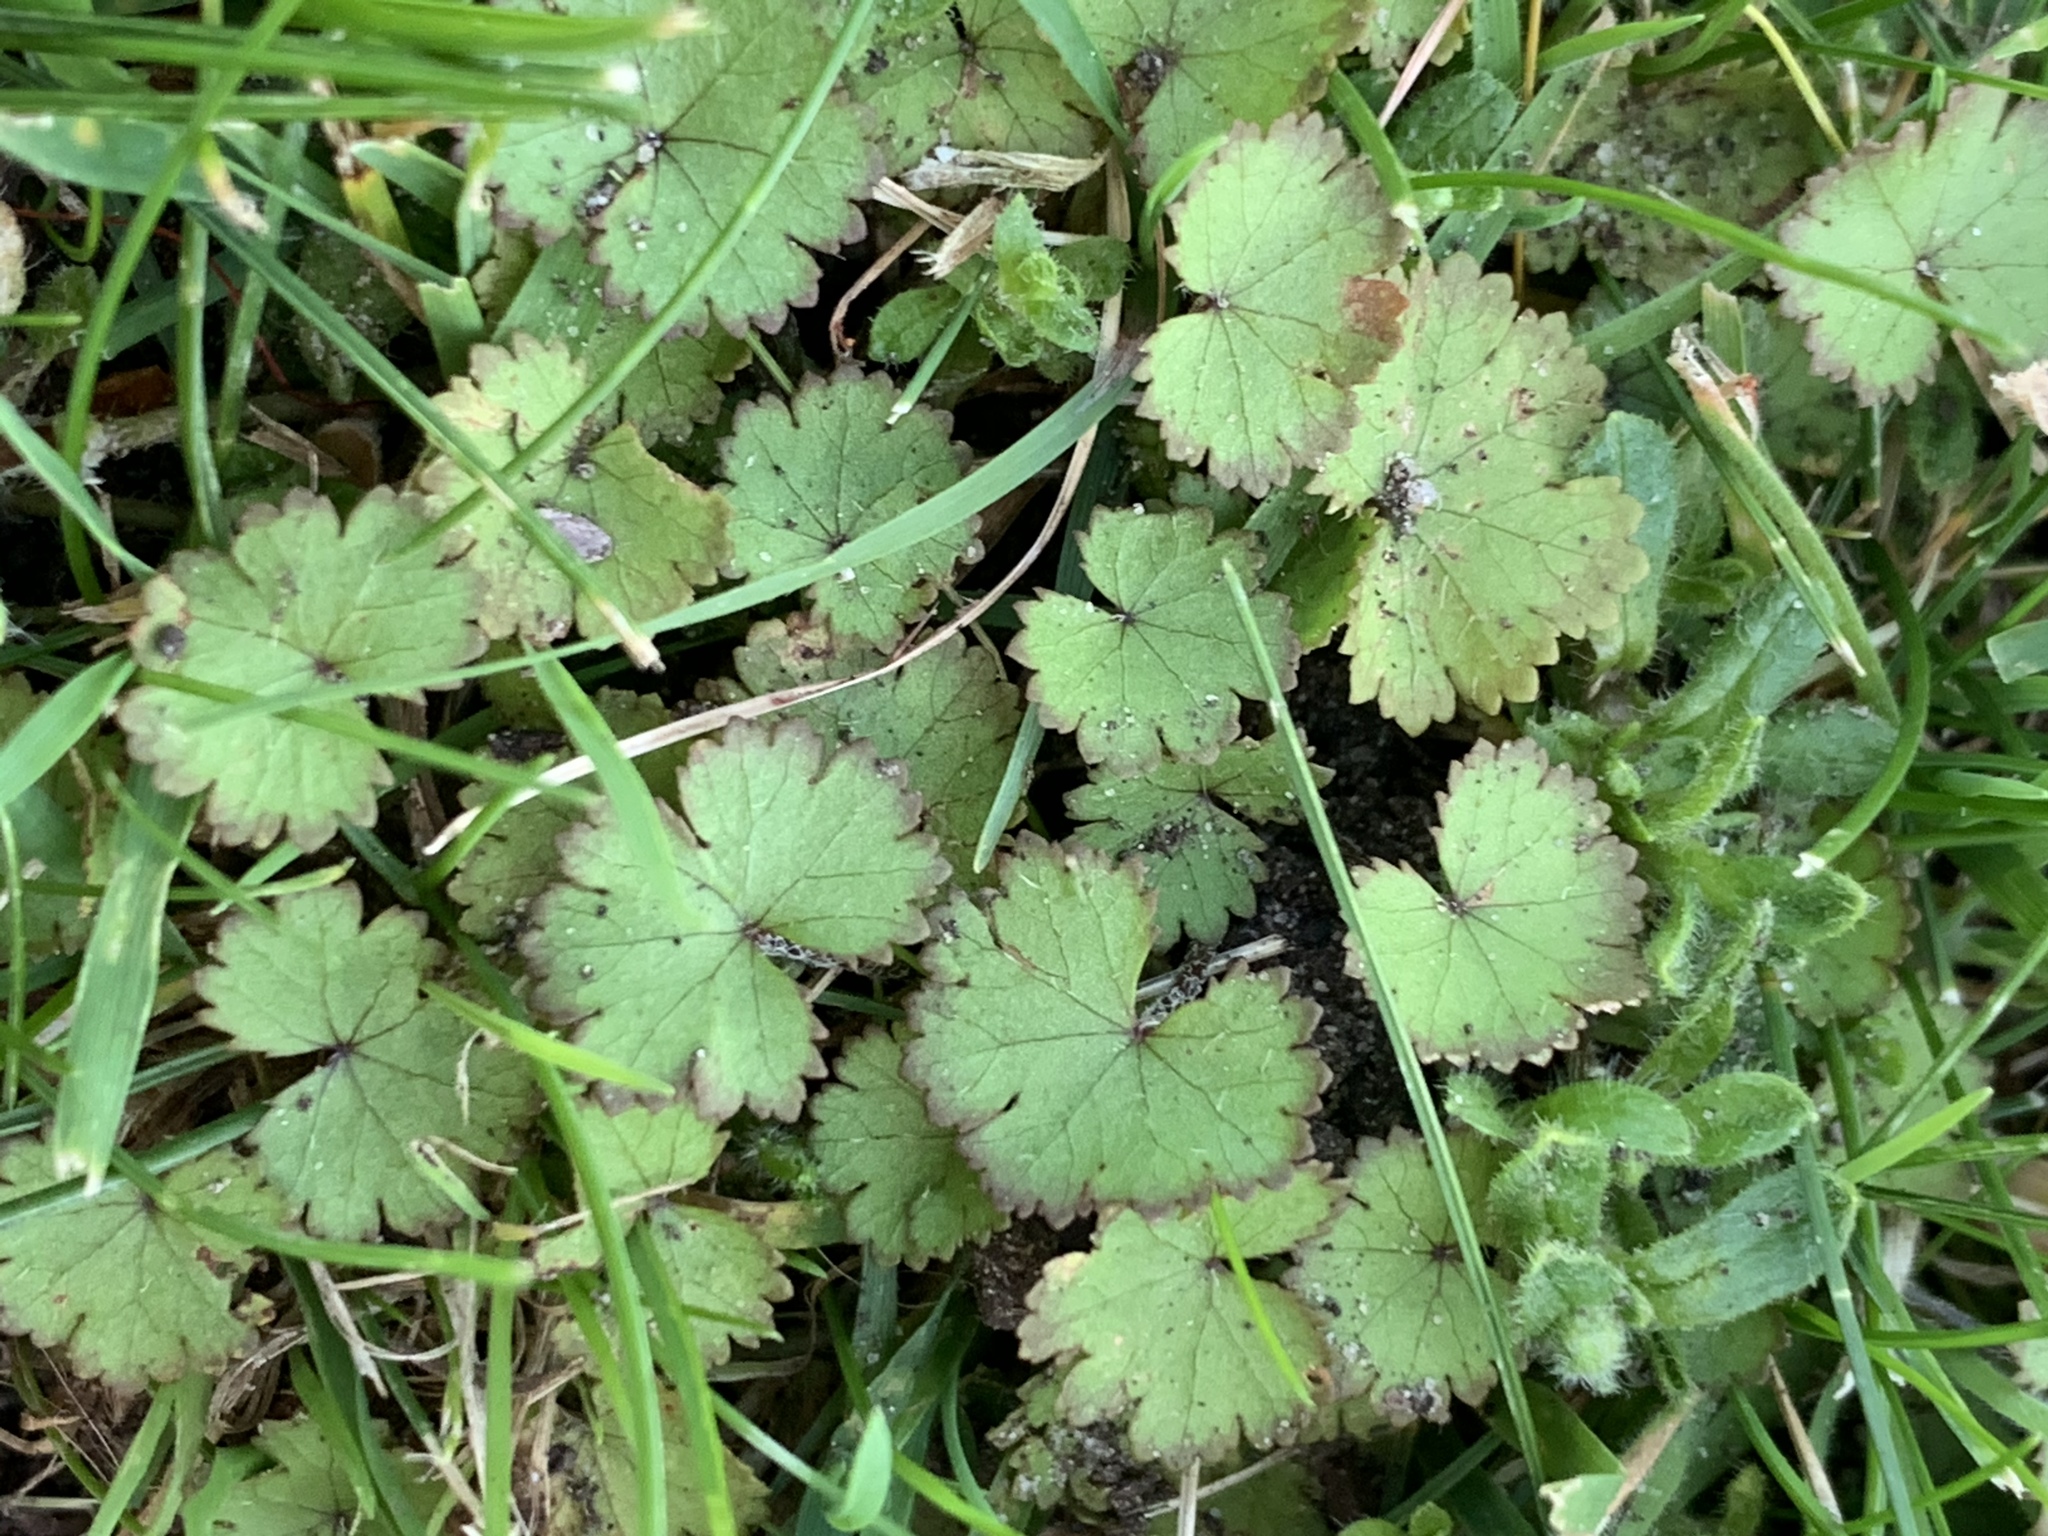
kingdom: Plantae
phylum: Tracheophyta
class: Magnoliopsida
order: Apiales
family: Araliaceae
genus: Hydrocotyle
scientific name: Hydrocotyle moschata
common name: Hairy pennywort
